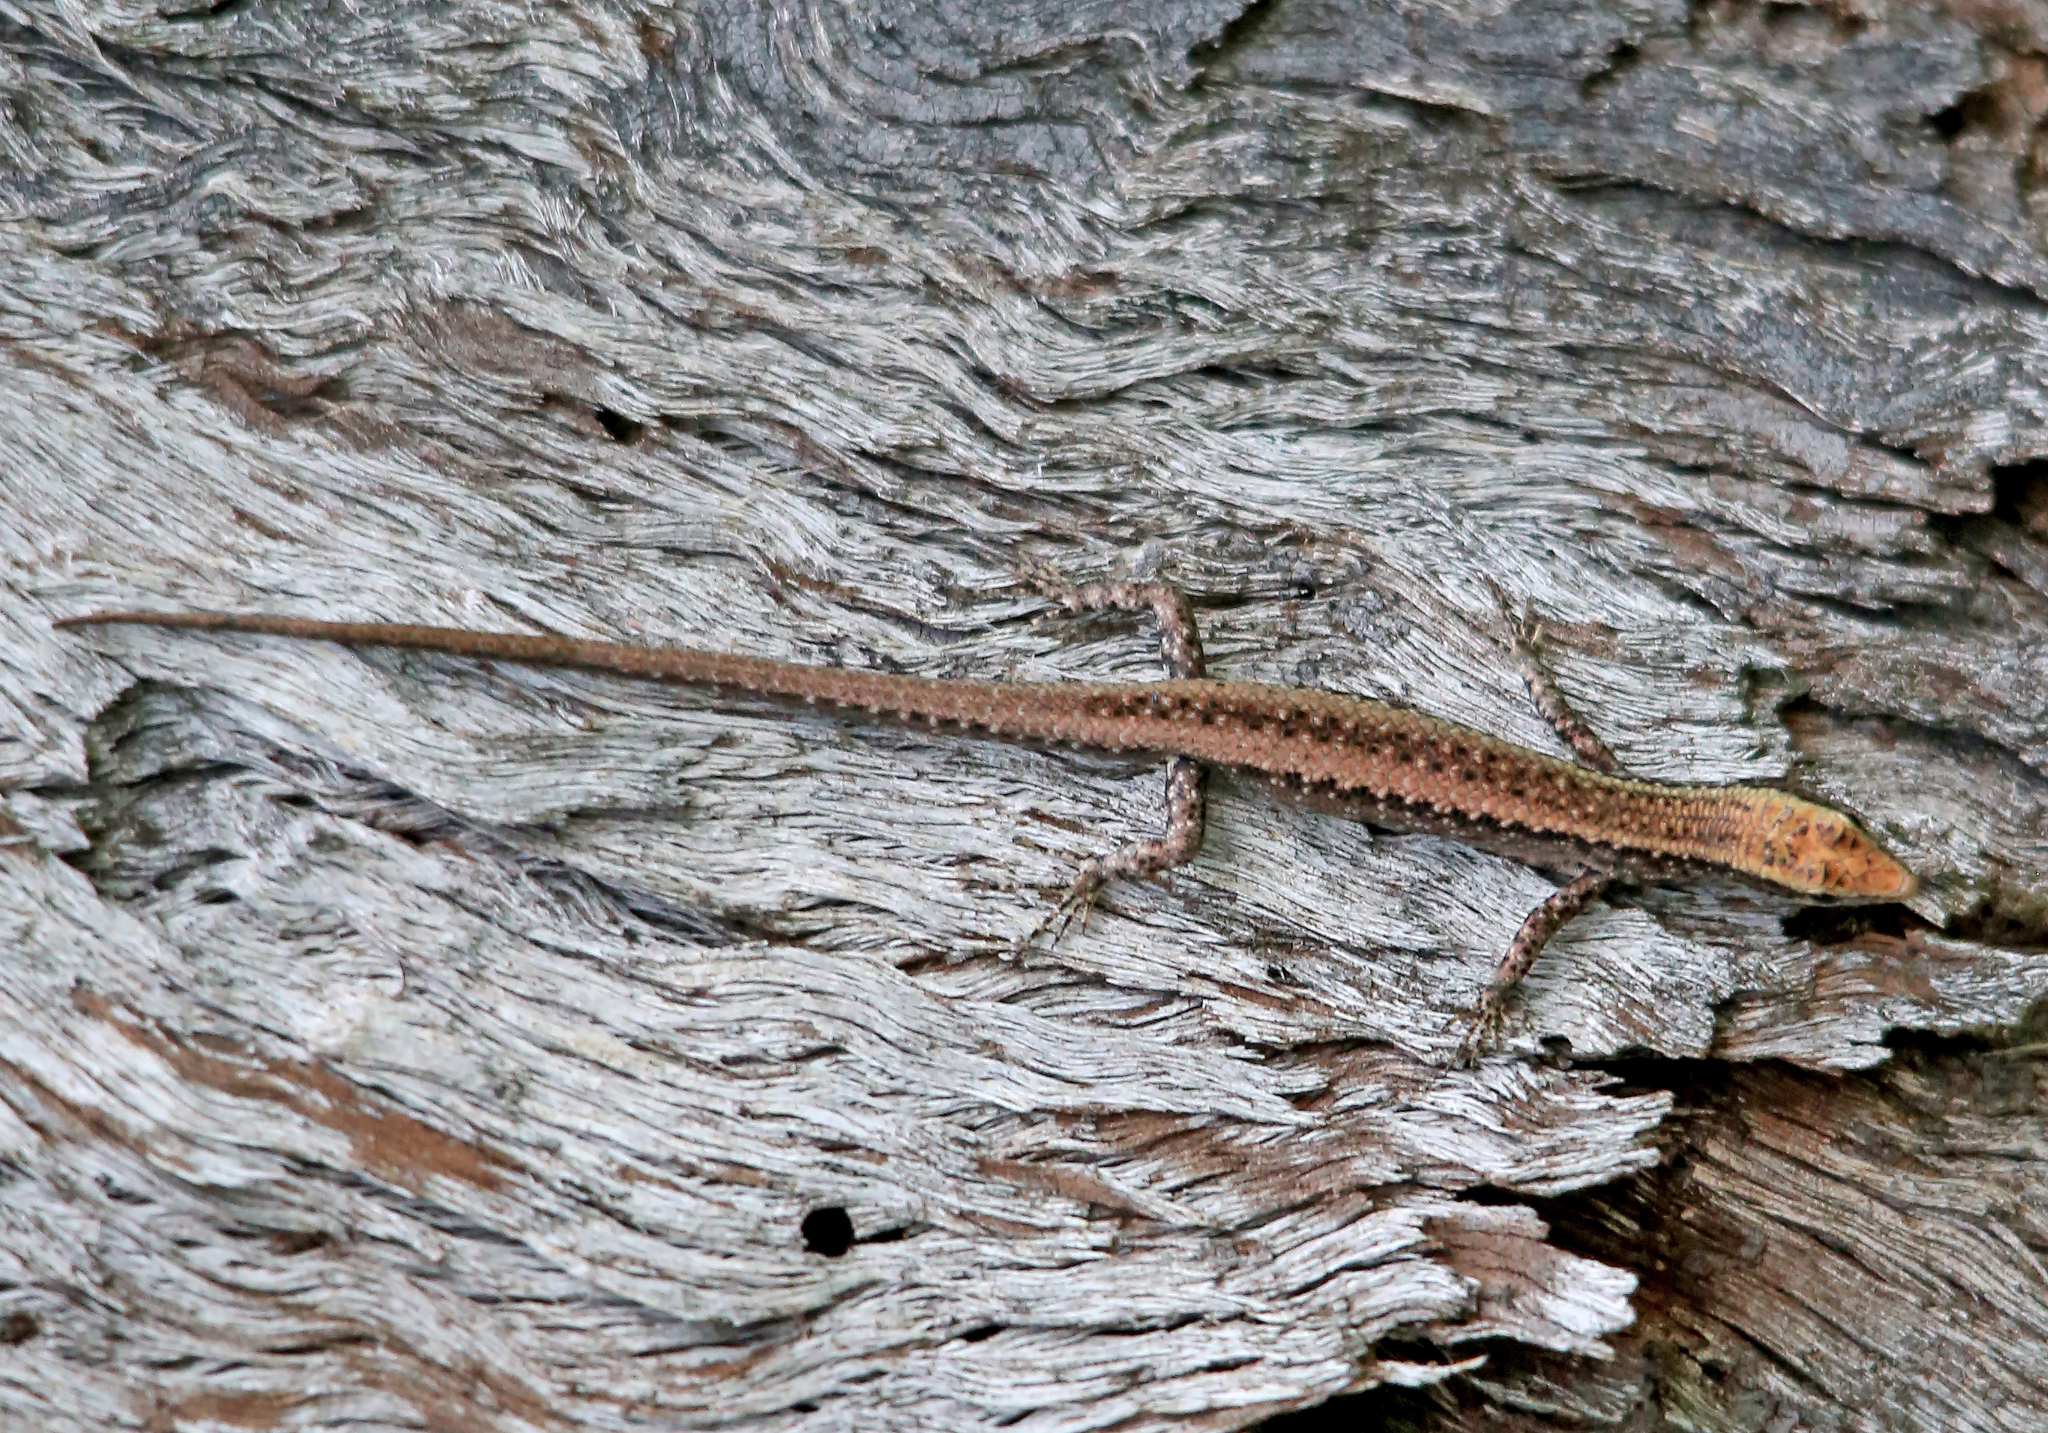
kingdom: Animalia
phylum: Chordata
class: Squamata
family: Scincidae
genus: Cryptoblepharus
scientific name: Cryptoblepharus cygnatus
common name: Swanson’s snake-eyed skink
